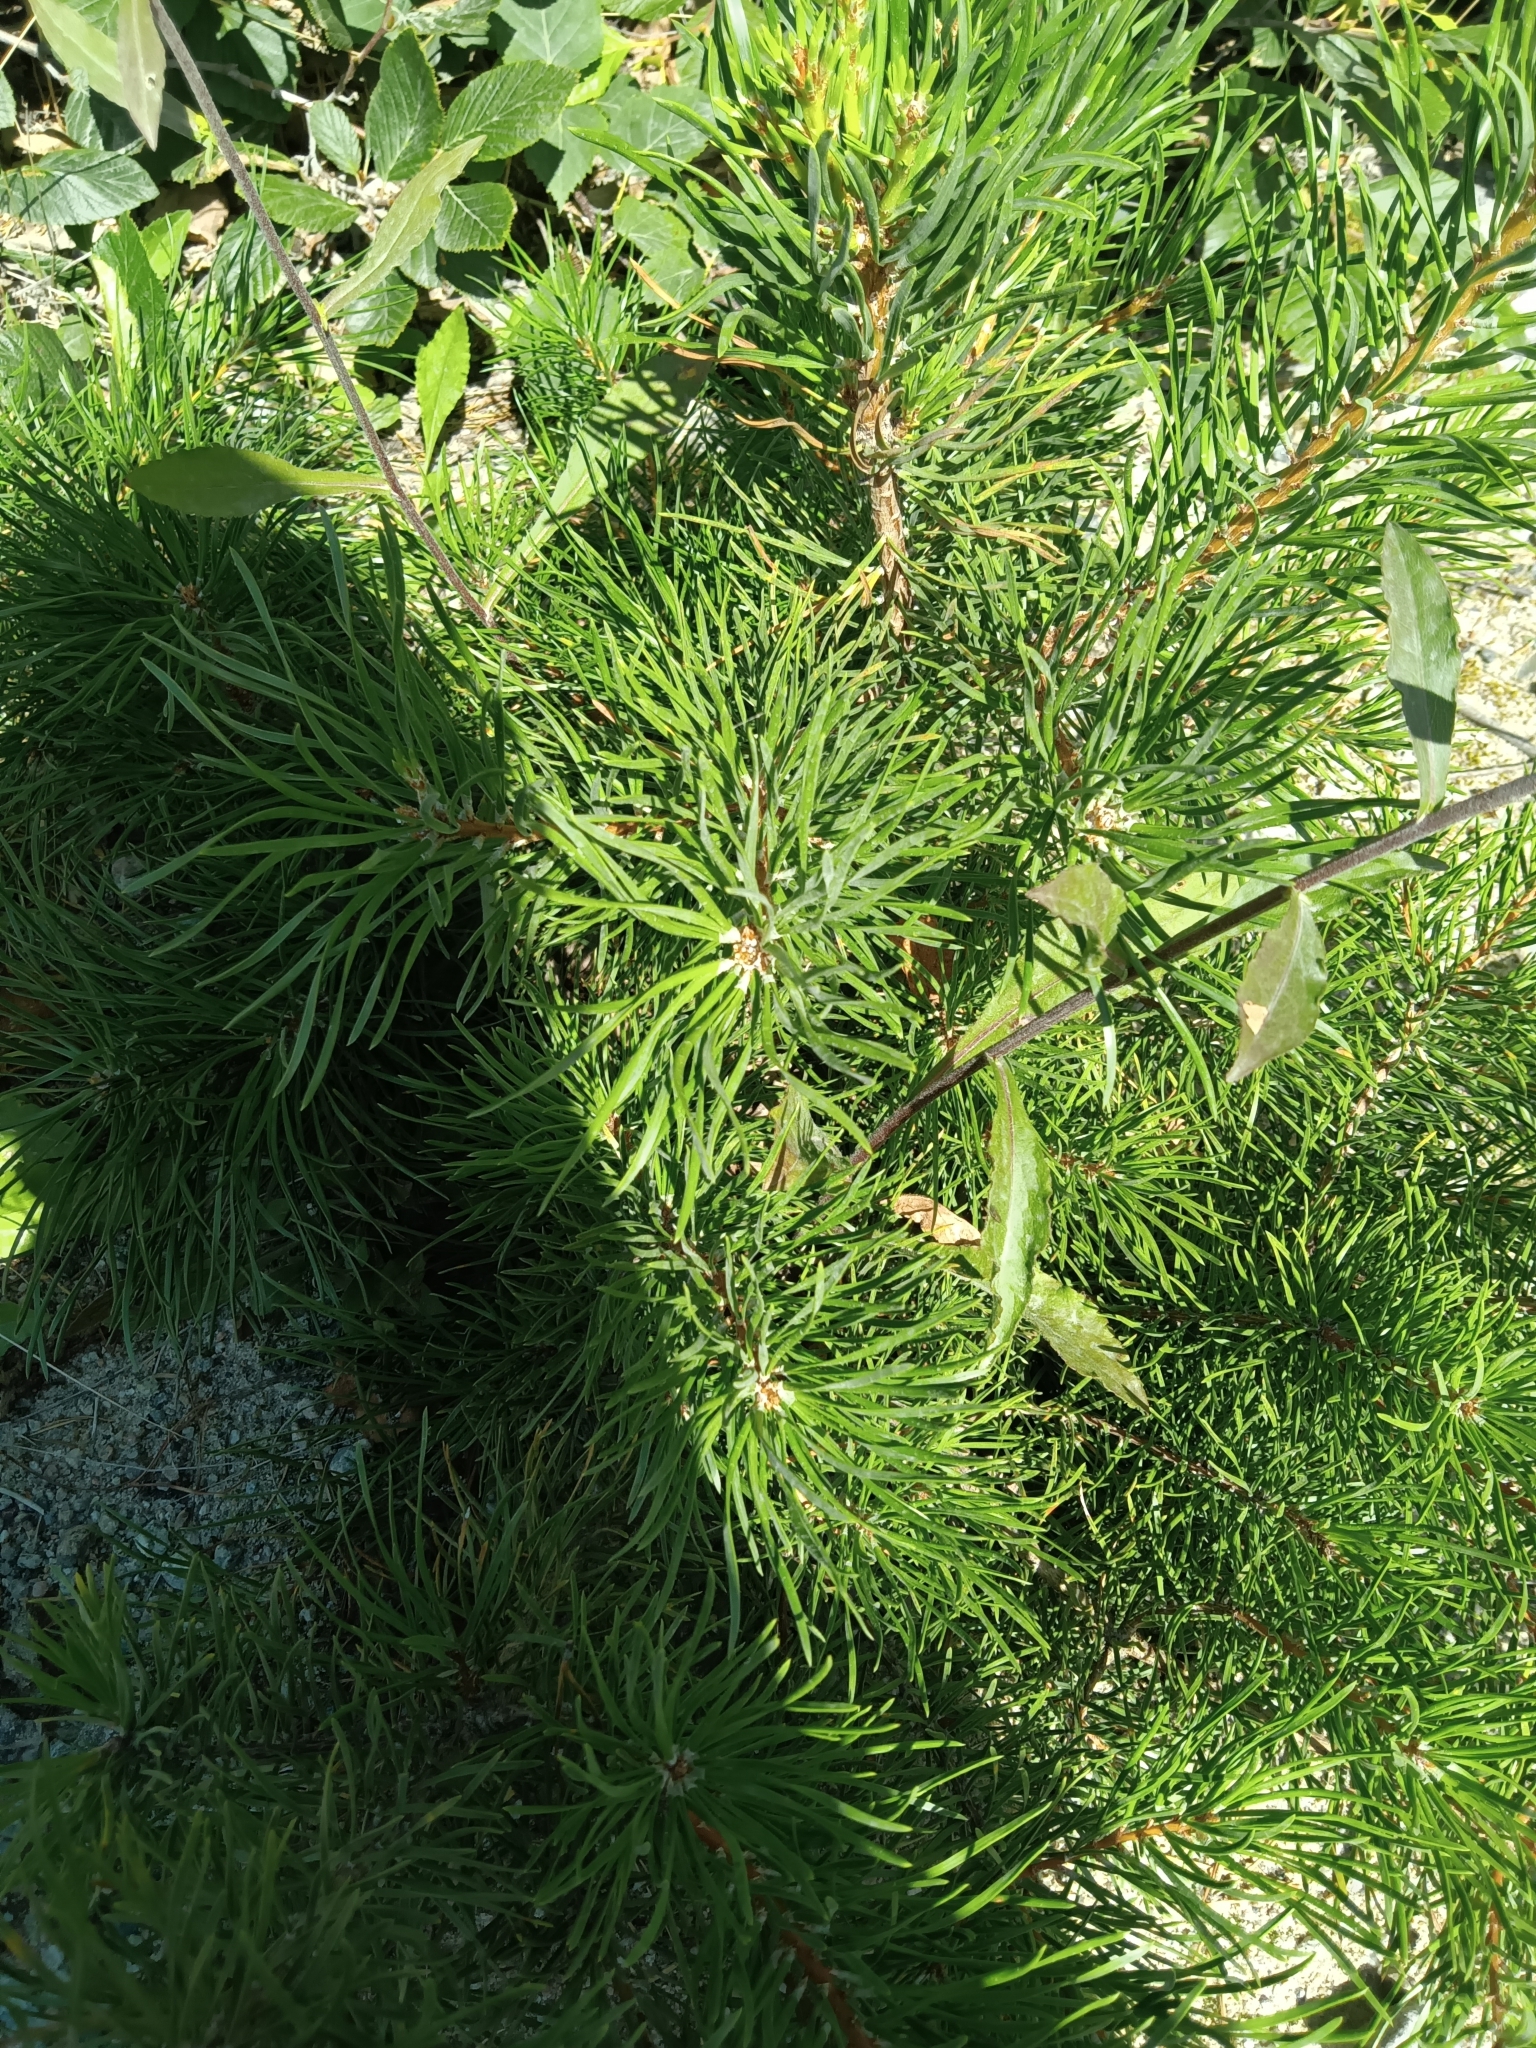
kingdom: Plantae
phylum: Tracheophyta
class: Pinopsida
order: Pinales
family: Pinaceae
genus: Pinus
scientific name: Pinus banksiana
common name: Jack pine
